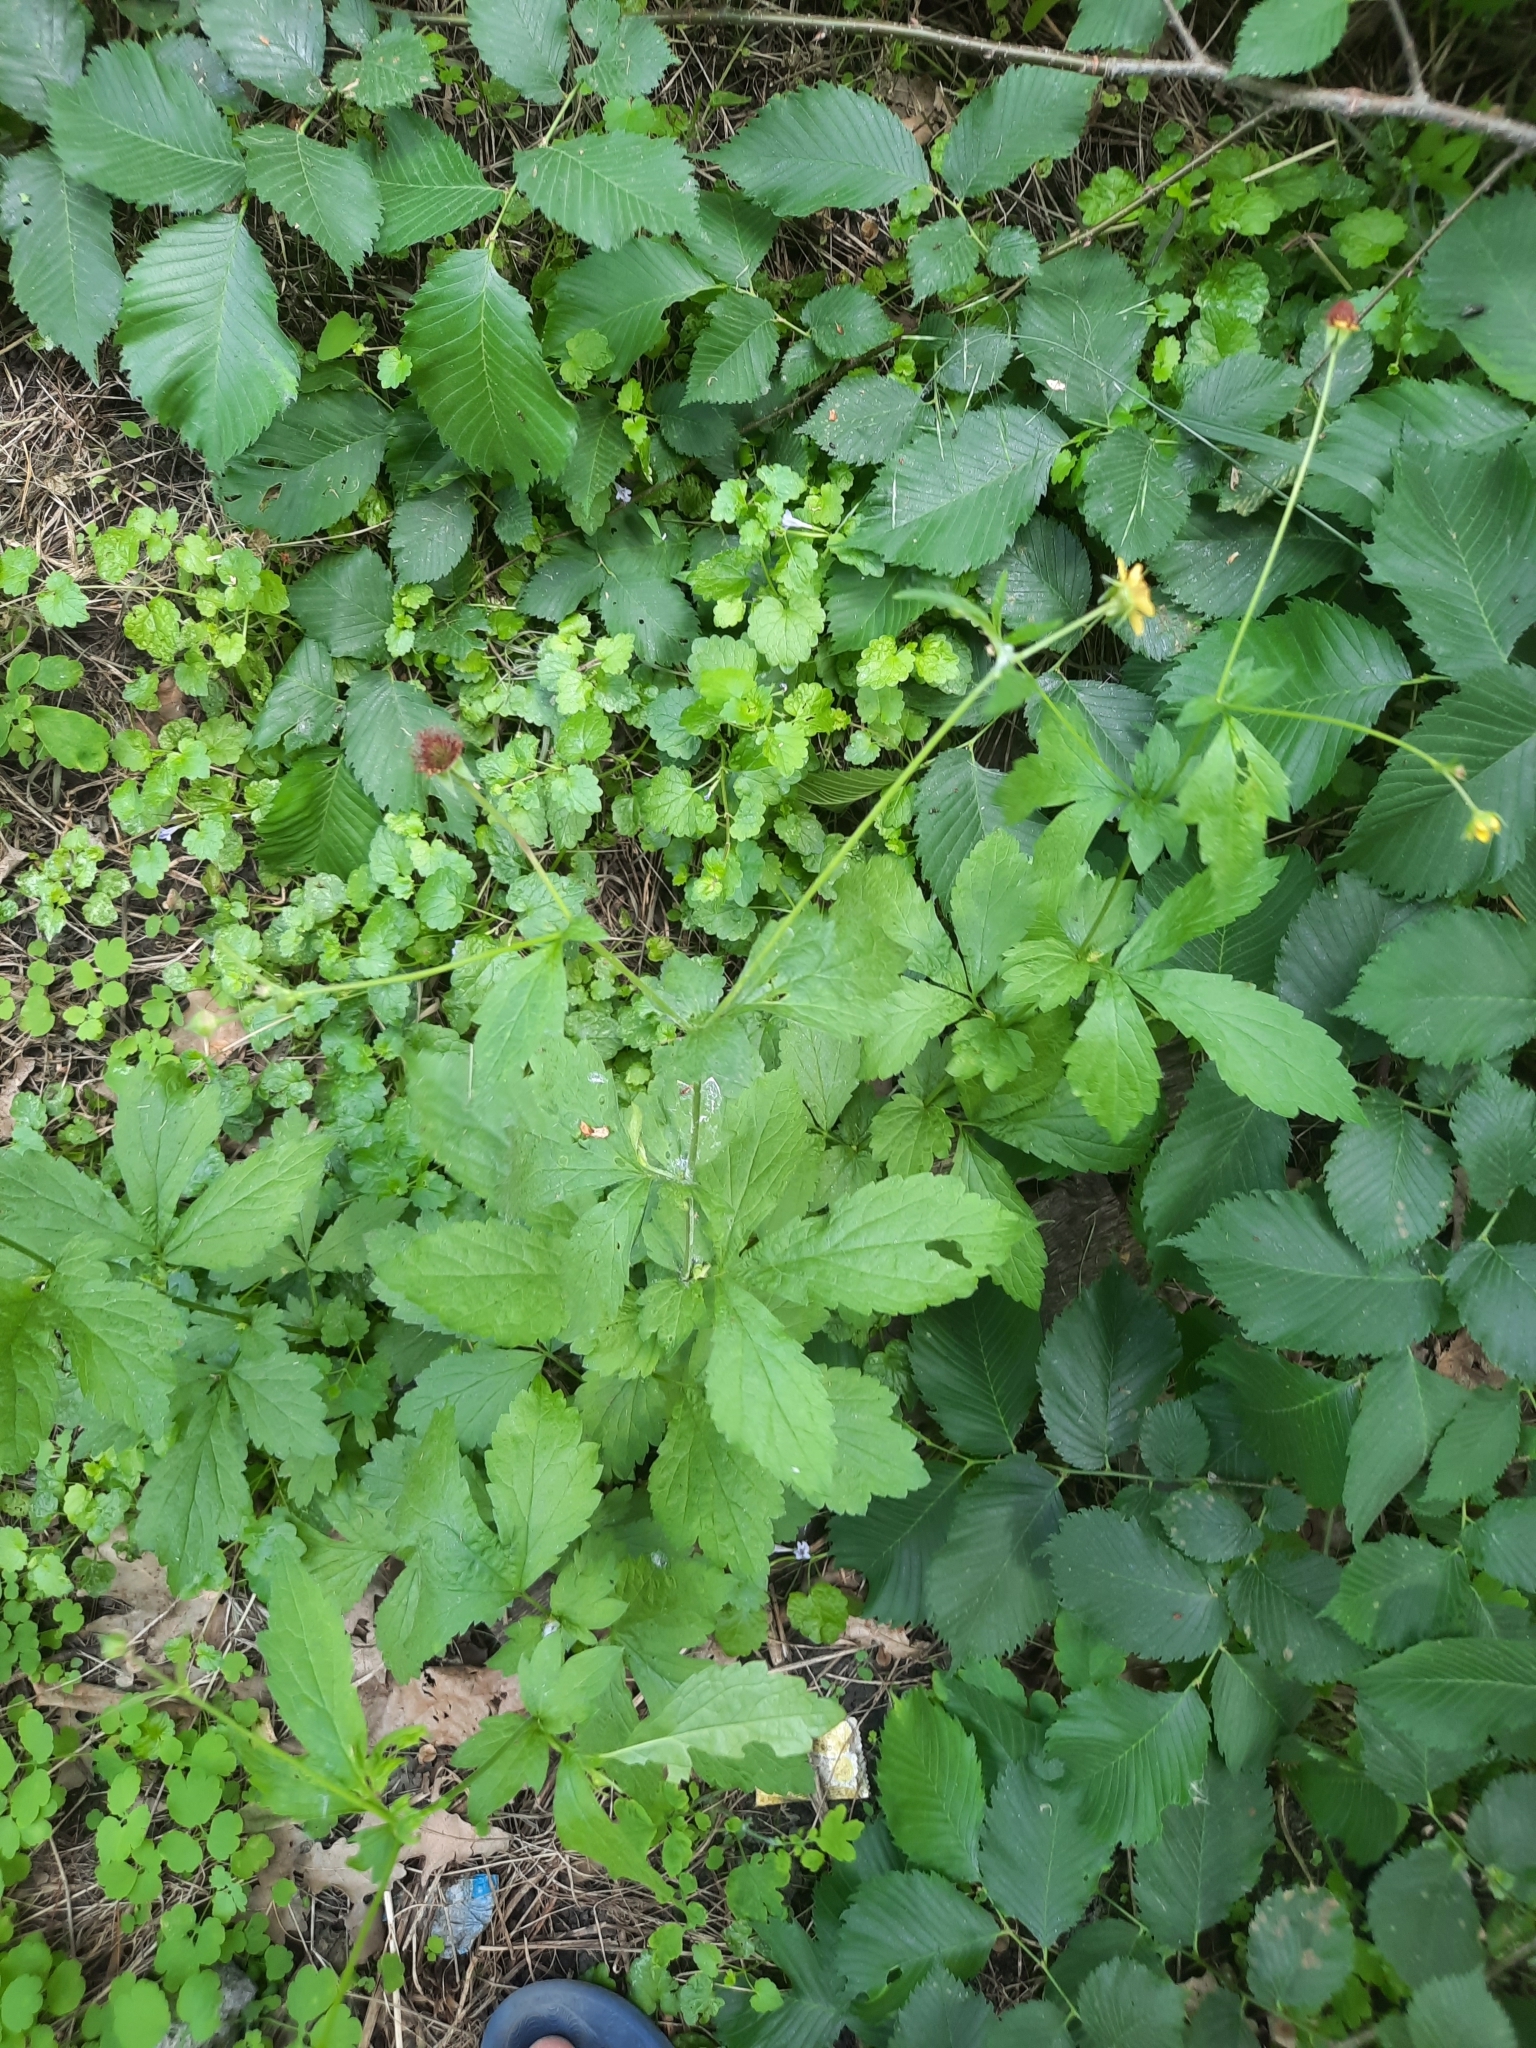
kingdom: Plantae
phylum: Tracheophyta
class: Magnoliopsida
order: Rosales
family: Rosaceae
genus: Geum
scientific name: Geum urbanum
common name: Wood avens
